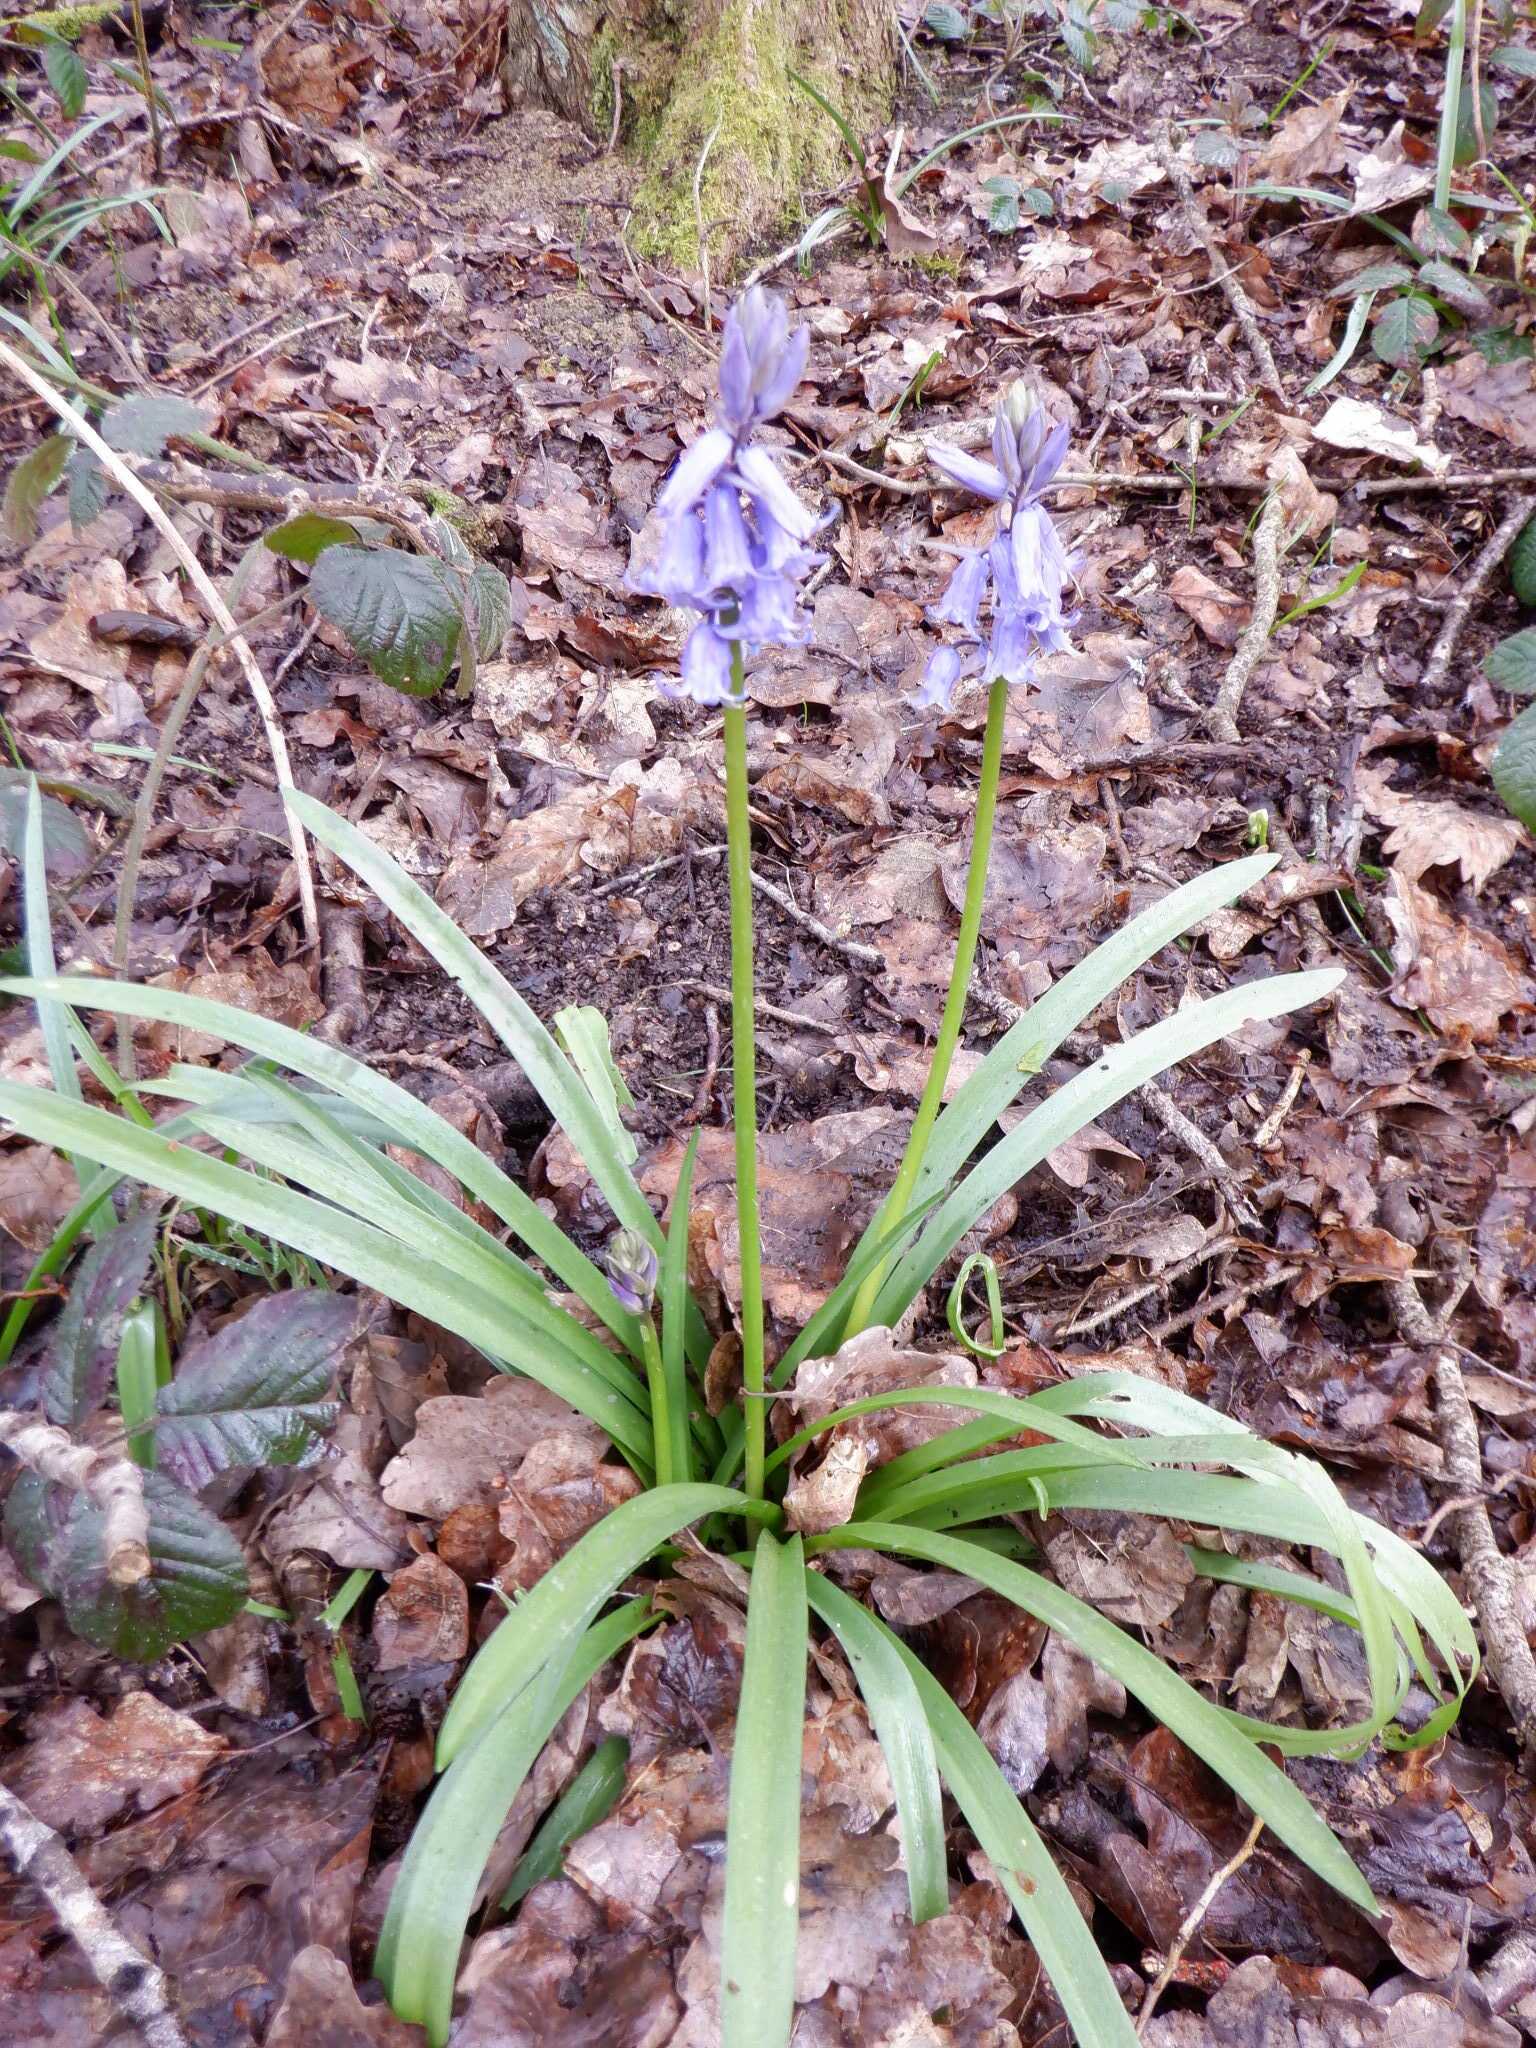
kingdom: Plantae
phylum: Tracheophyta
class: Liliopsida
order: Asparagales
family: Asparagaceae
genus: Hyacinthoides
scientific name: Hyacinthoides non-scripta
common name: Bluebell
